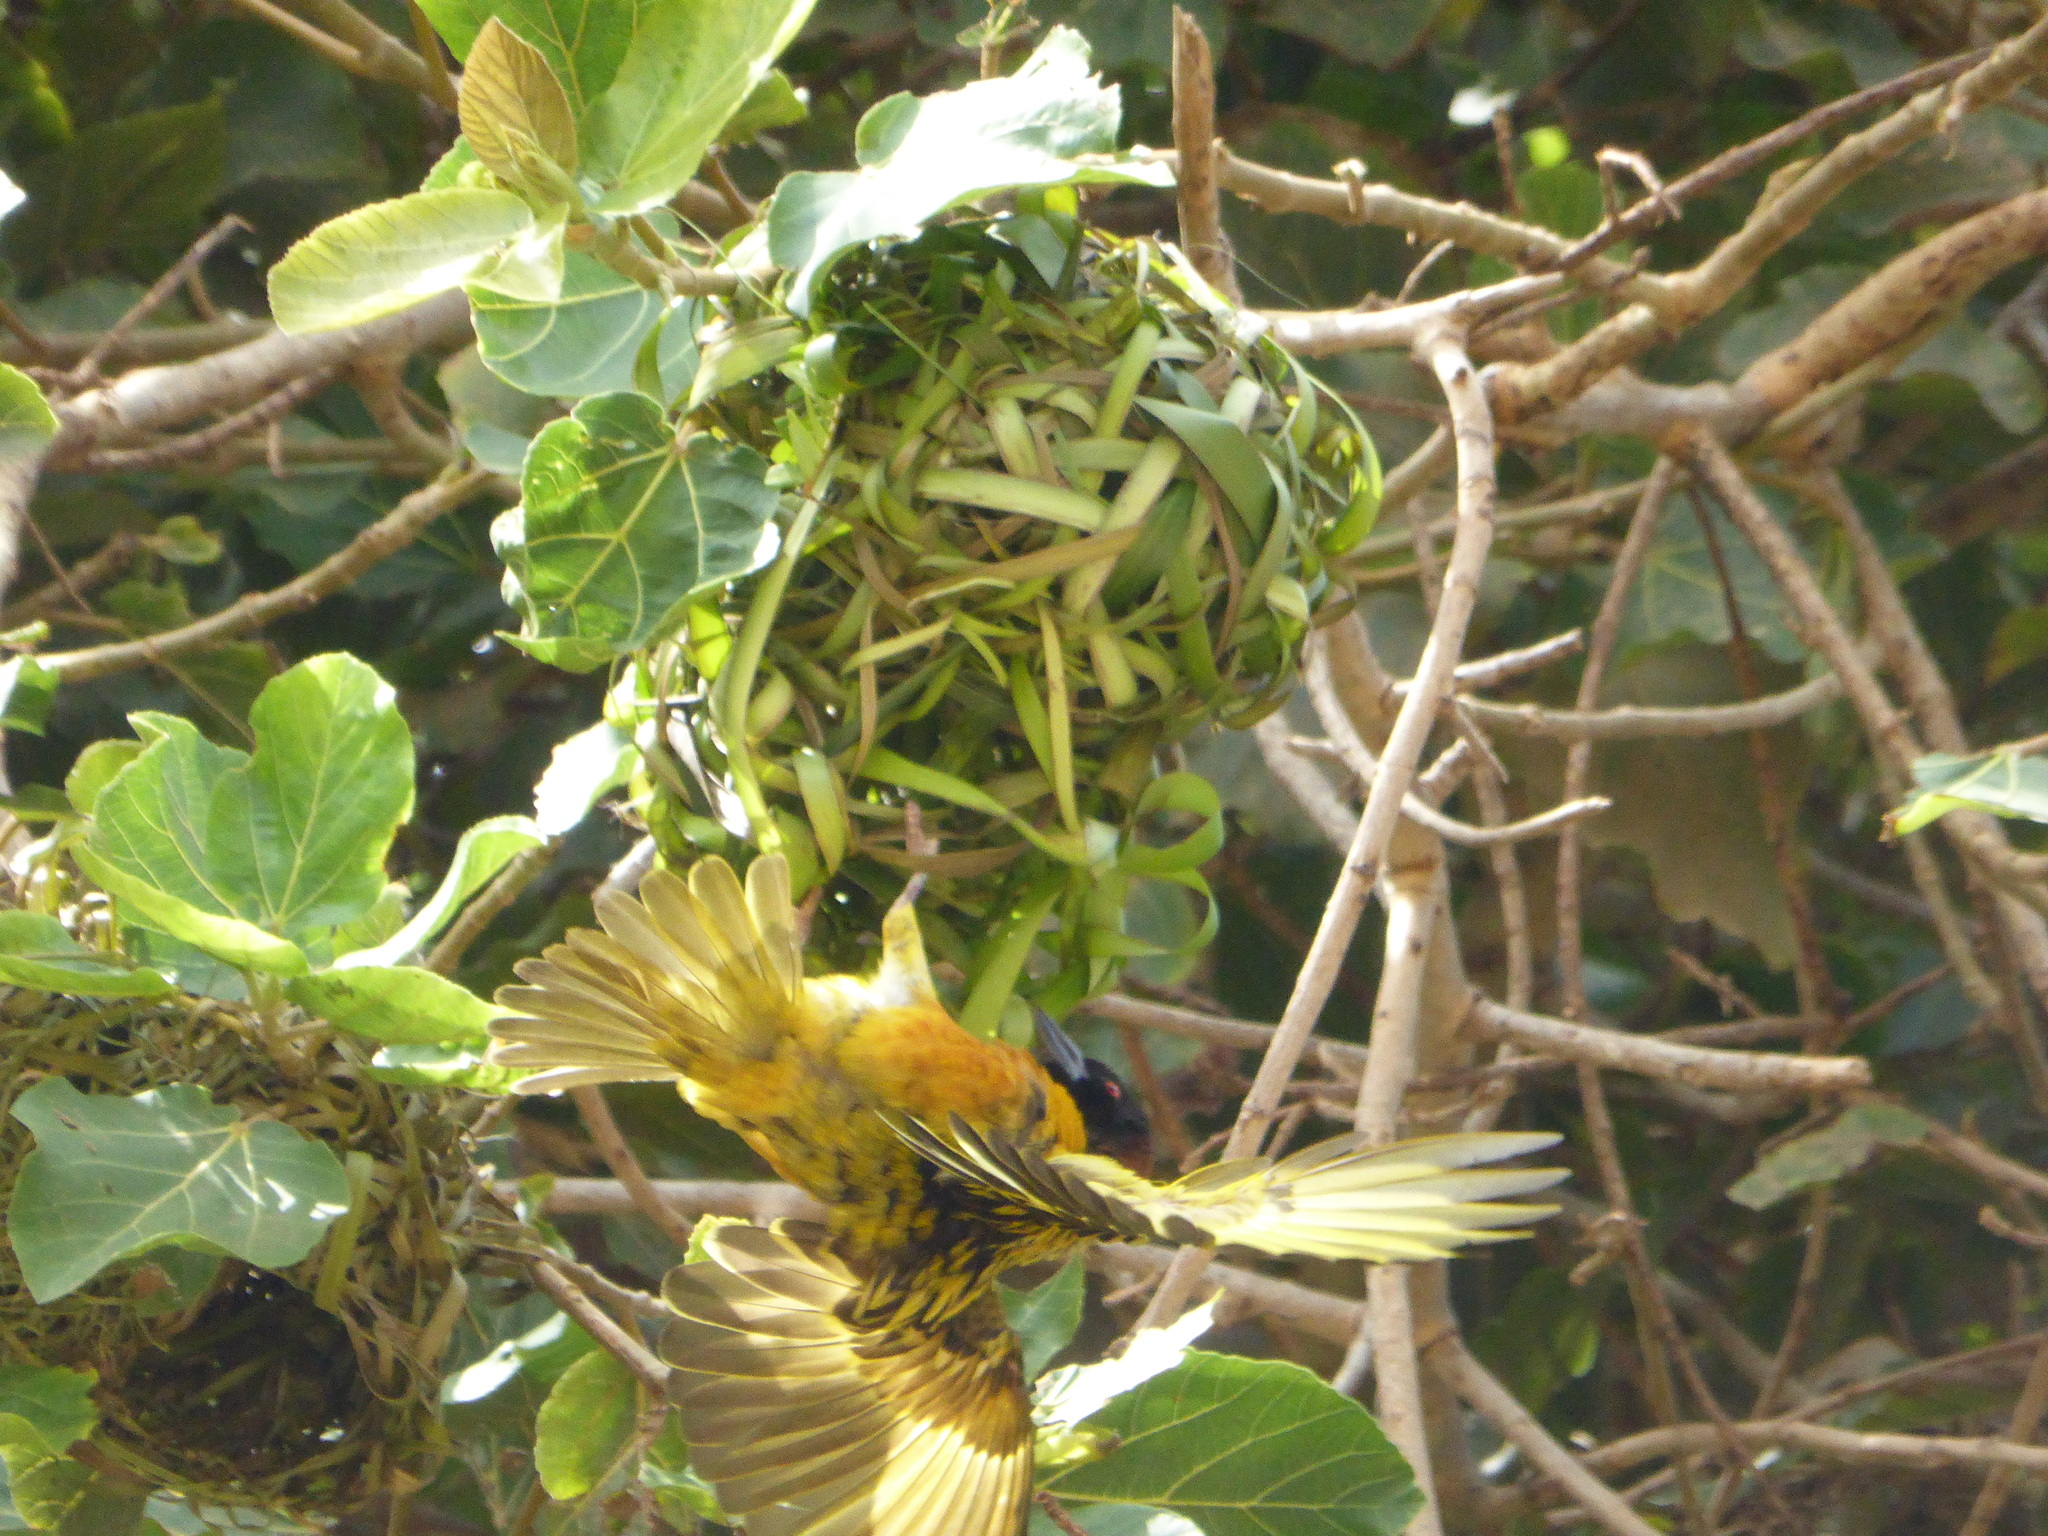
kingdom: Animalia
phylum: Chordata
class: Aves
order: Passeriformes
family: Ploceidae
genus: Ploceus
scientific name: Ploceus cucullatus
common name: Village weaver
